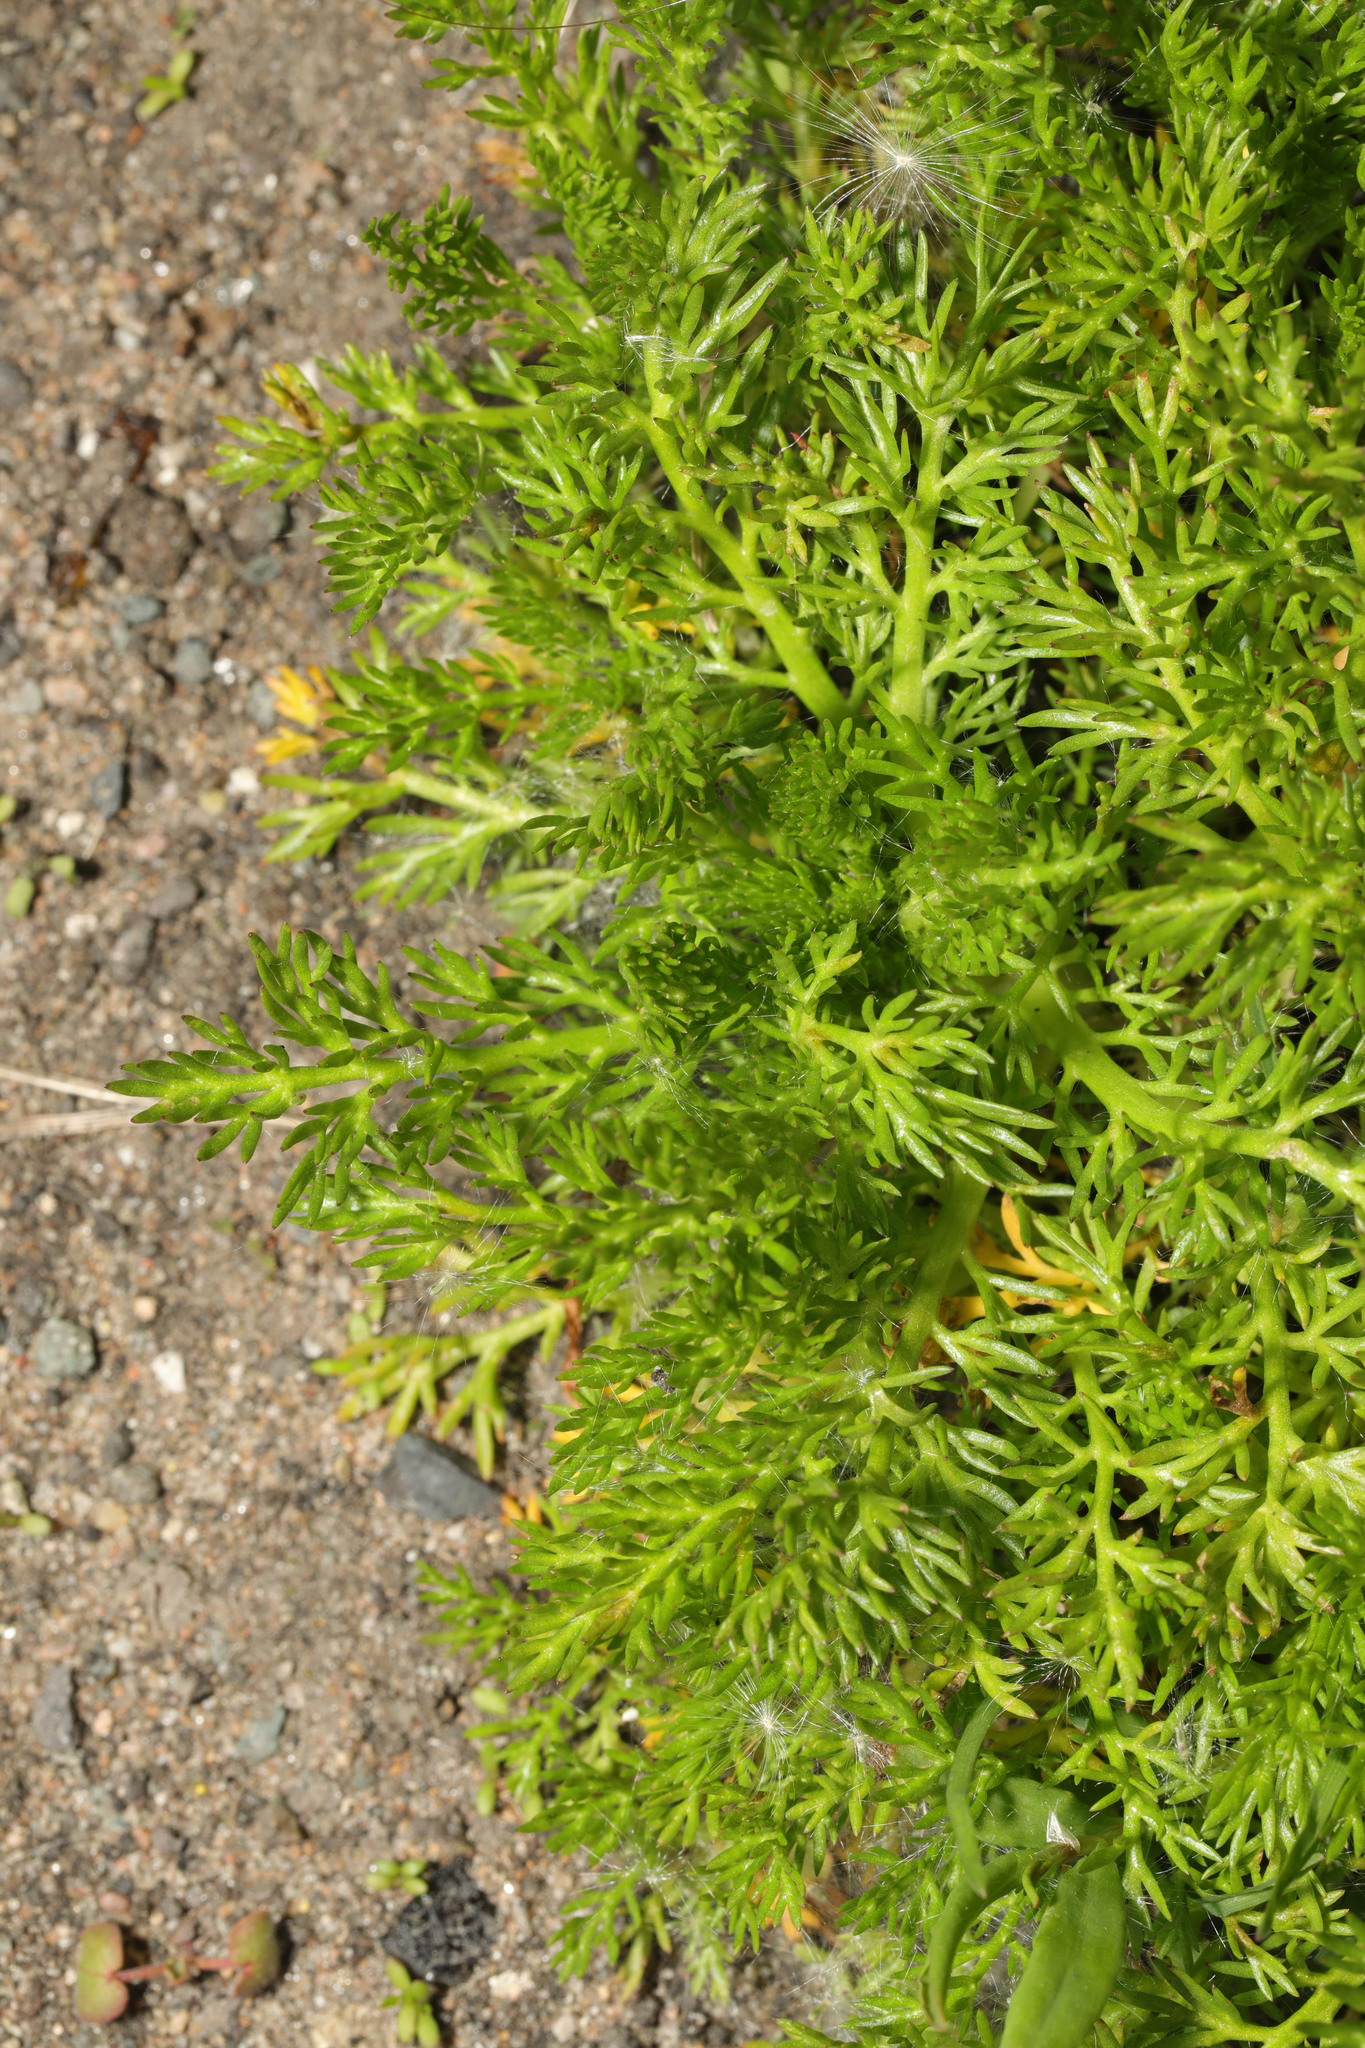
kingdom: Plantae
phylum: Tracheophyta
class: Magnoliopsida
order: Asterales
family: Asteraceae
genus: Matricaria
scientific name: Matricaria discoidea
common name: Disc mayweed
